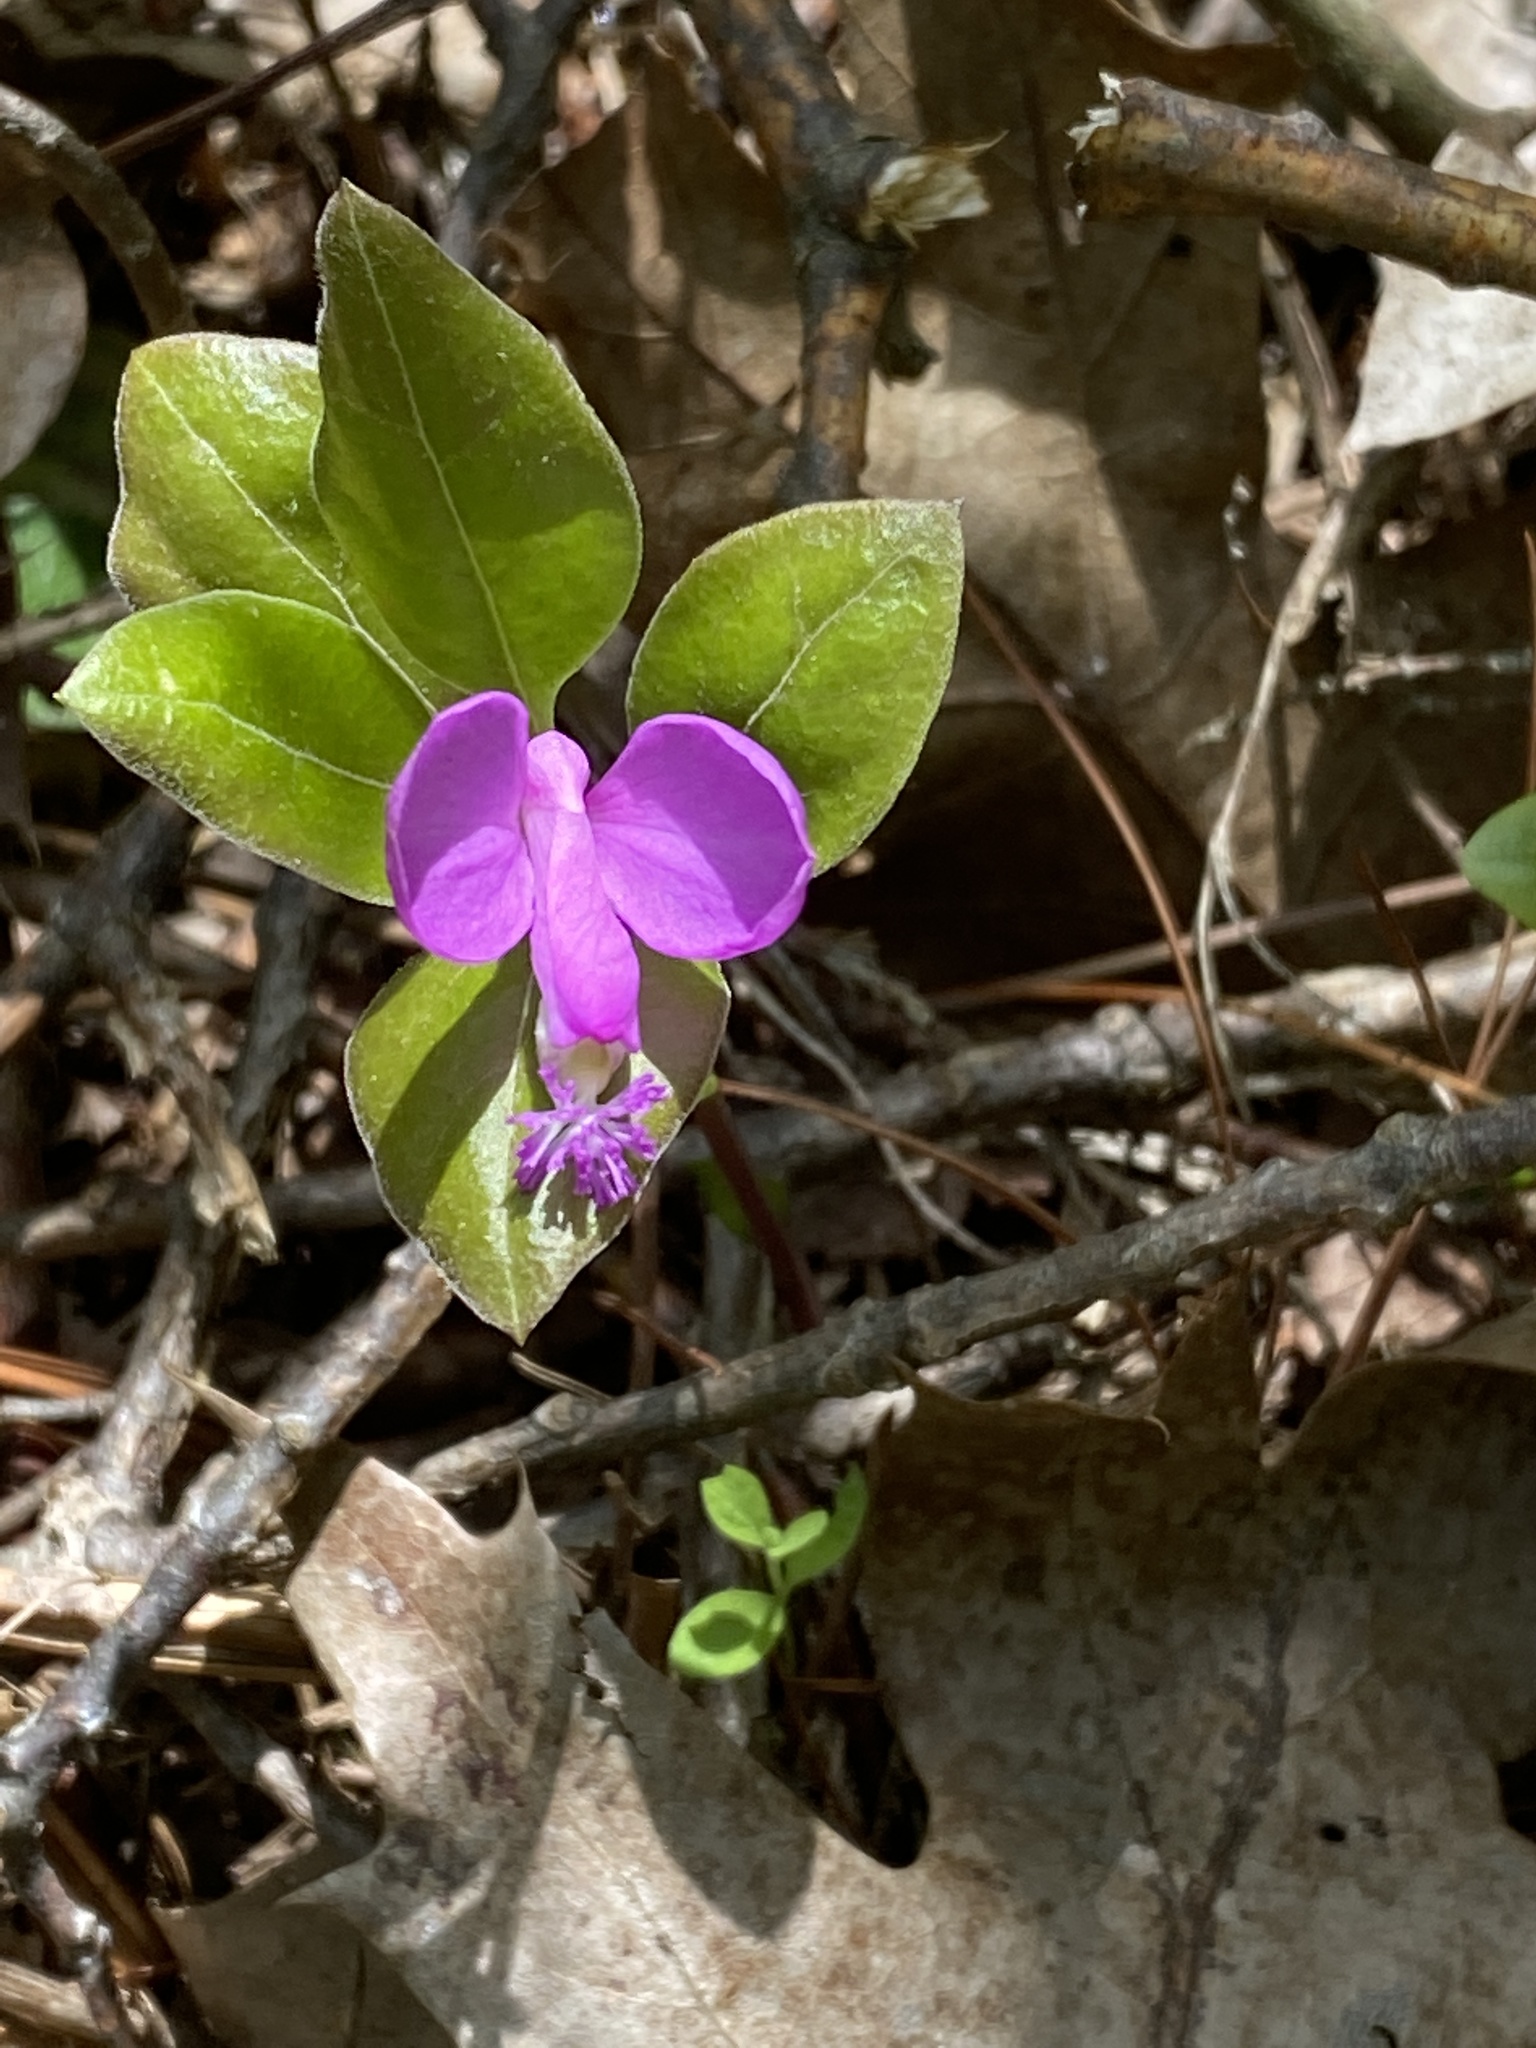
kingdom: Plantae
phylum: Tracheophyta
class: Magnoliopsida
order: Fabales
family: Polygalaceae
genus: Polygaloides
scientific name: Polygaloides paucifolia
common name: Bird-on-the-wing
